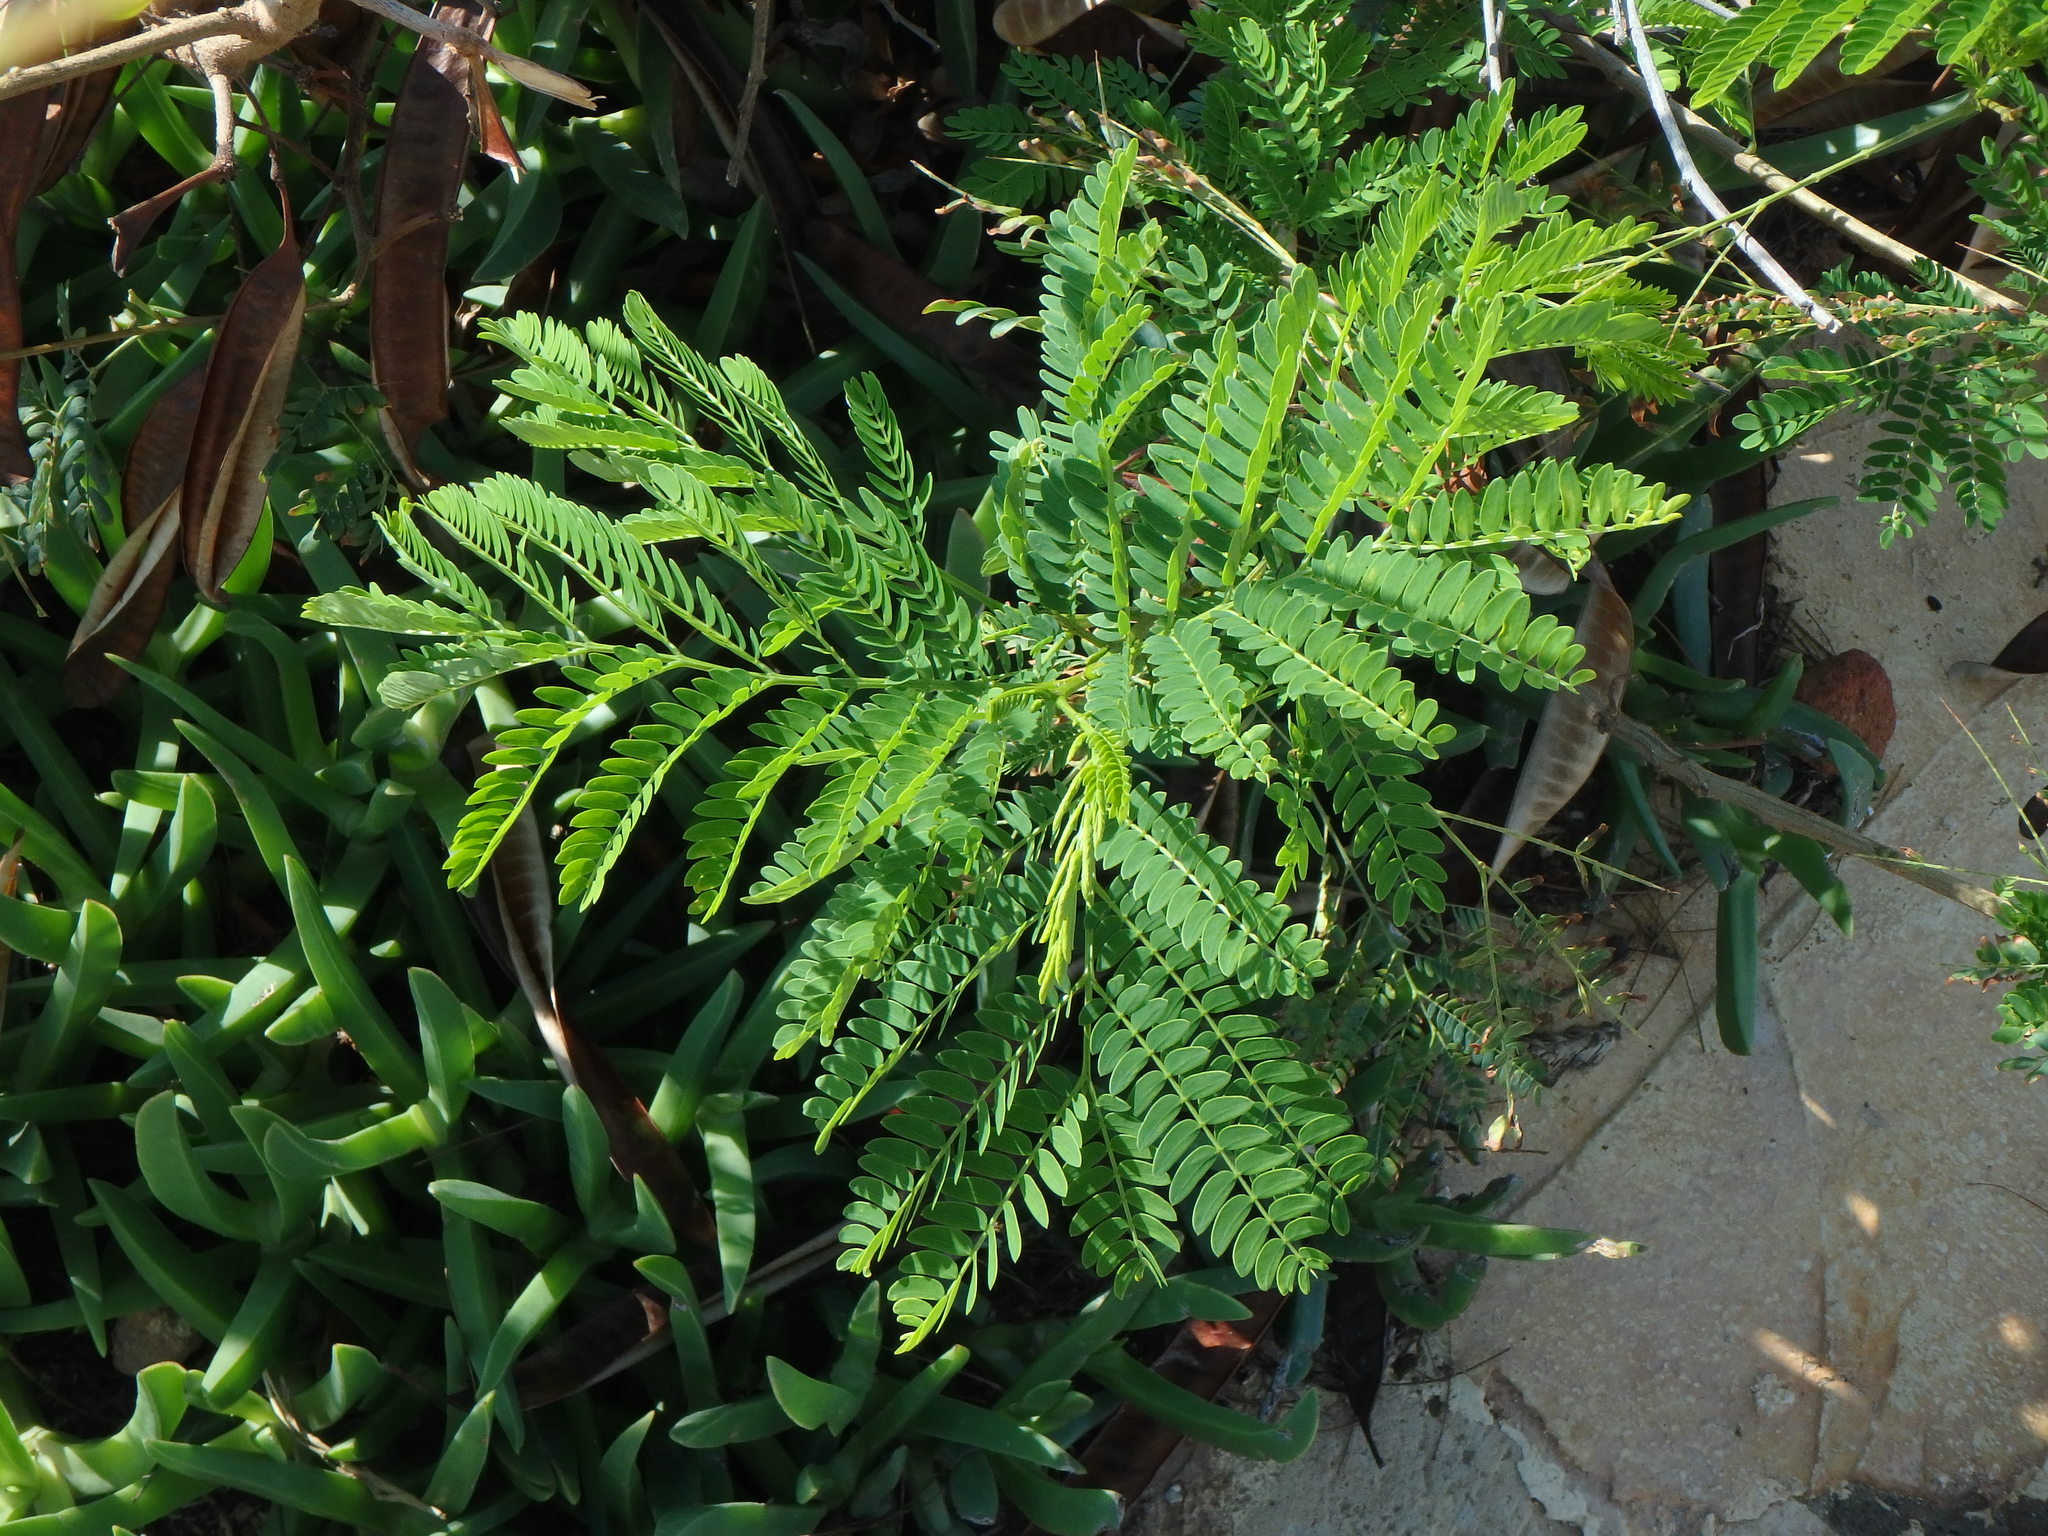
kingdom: Plantae
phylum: Tracheophyta
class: Magnoliopsida
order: Fabales
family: Fabaceae
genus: Leucaena
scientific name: Leucaena leucocephala
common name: White leadtree
